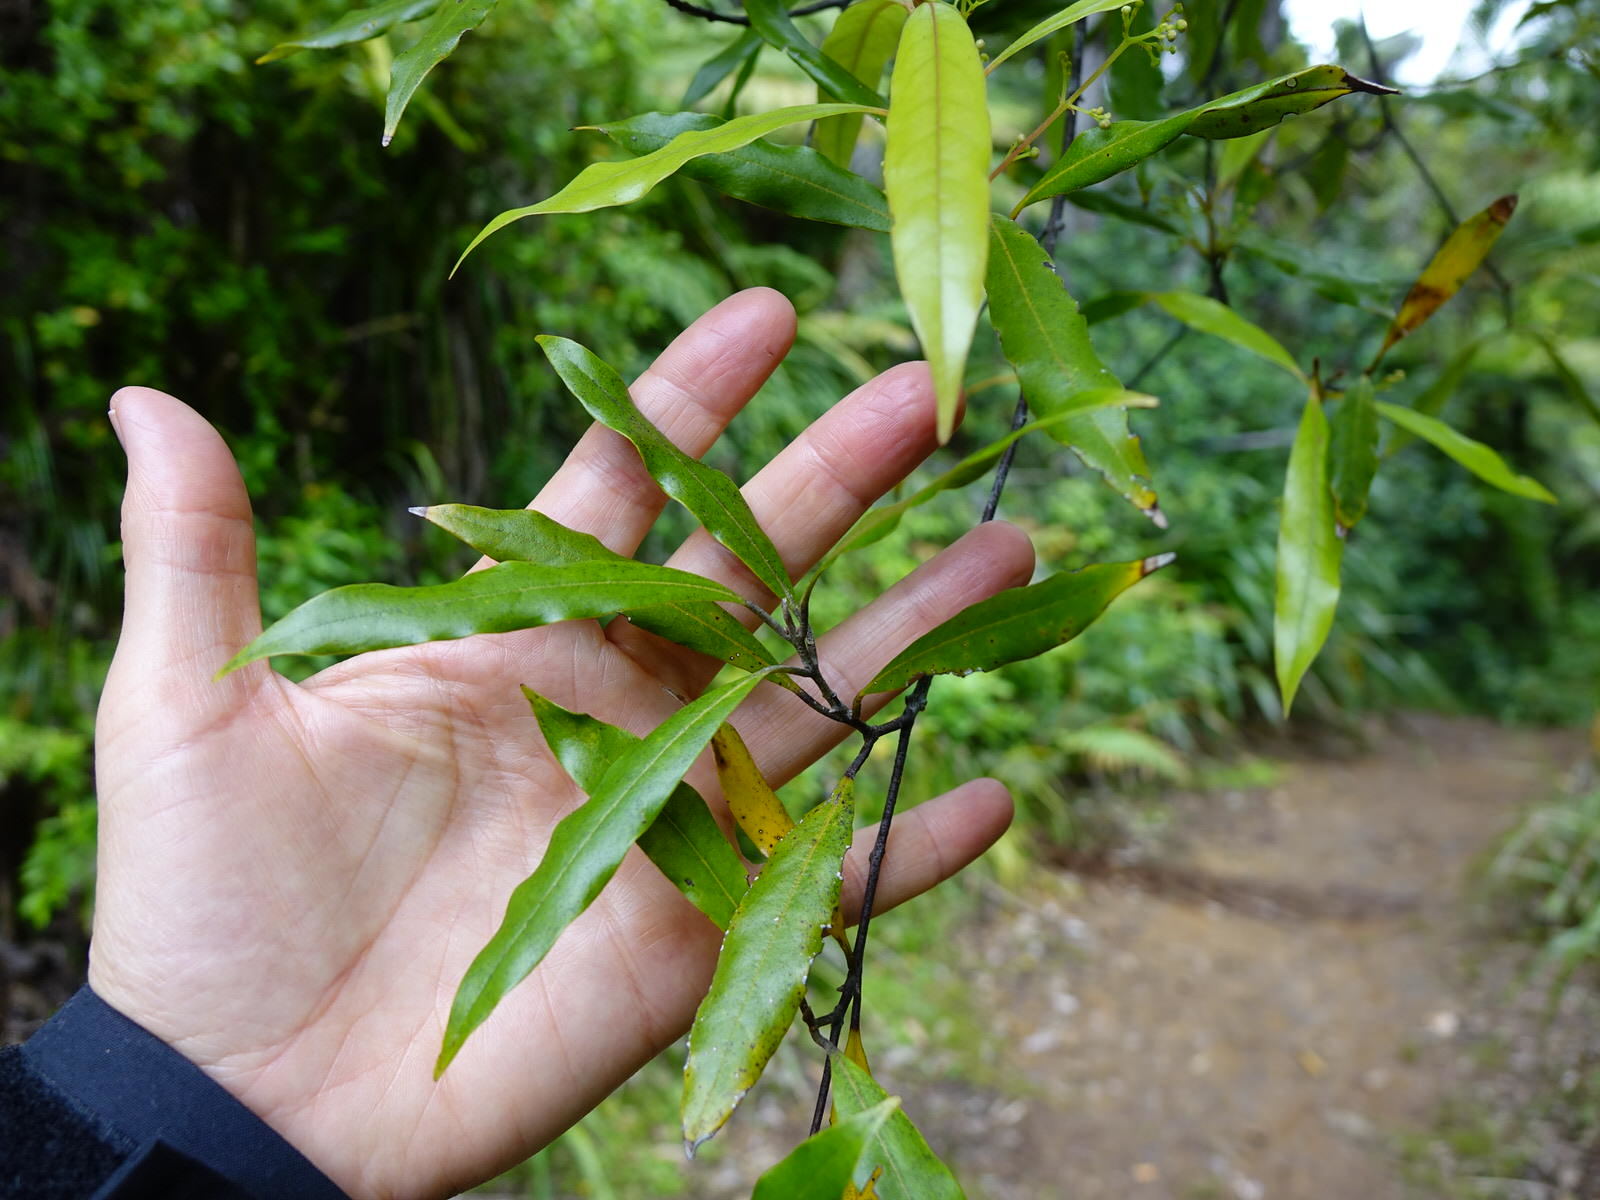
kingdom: Plantae
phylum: Tracheophyta
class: Magnoliopsida
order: Laurales
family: Lauraceae
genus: Beilschmiedia
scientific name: Beilschmiedia tawa
